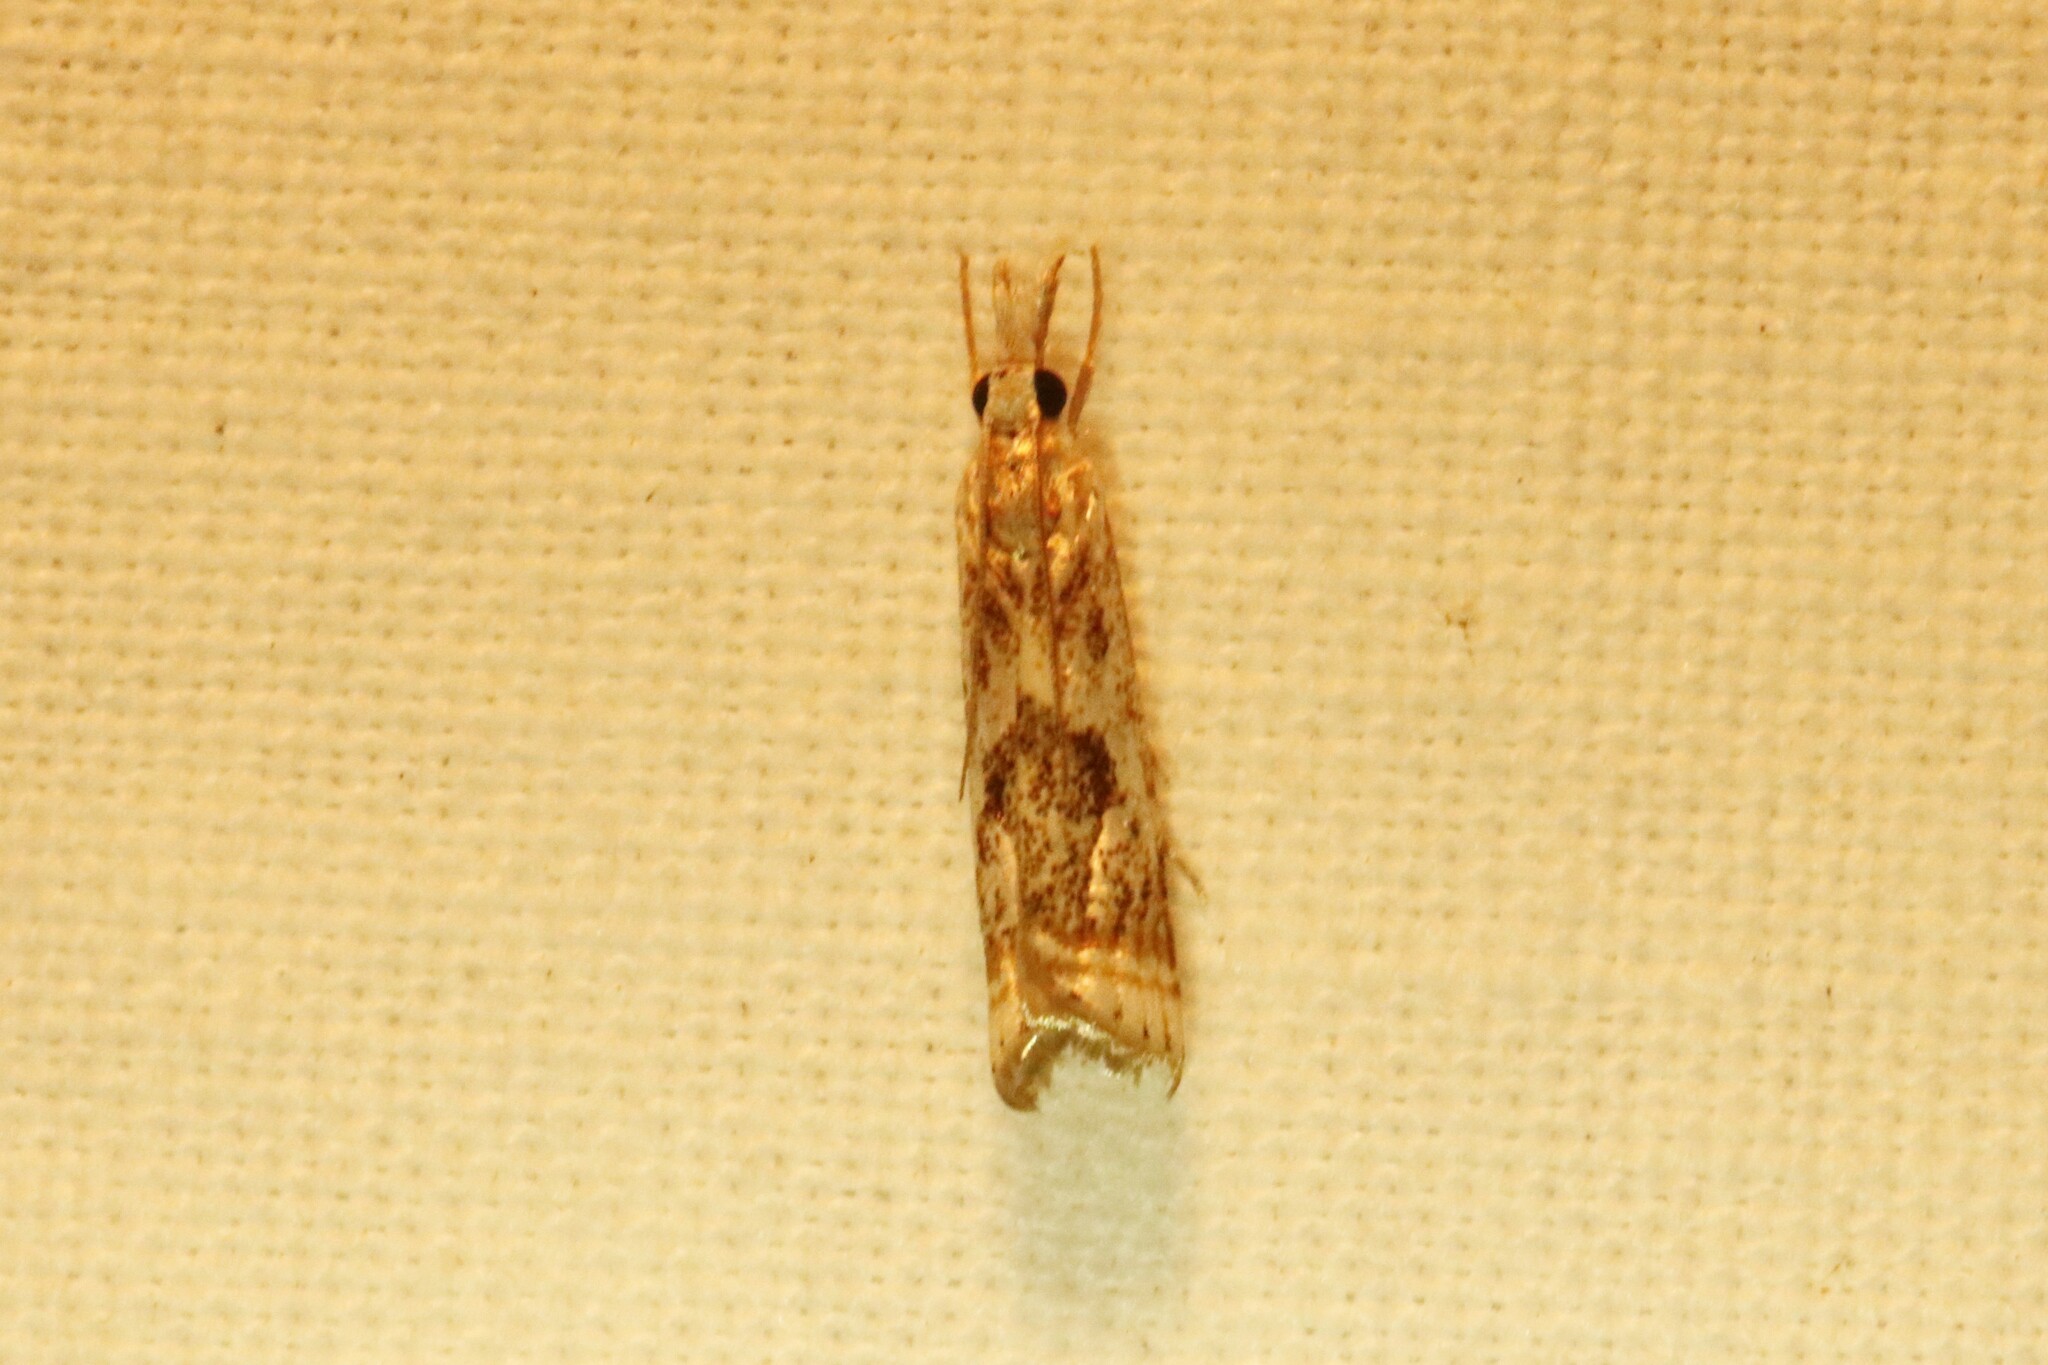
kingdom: Animalia
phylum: Arthropoda
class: Insecta
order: Lepidoptera
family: Crambidae
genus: Microcrambus
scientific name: Microcrambus elegans
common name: Elegant grass-veneer
